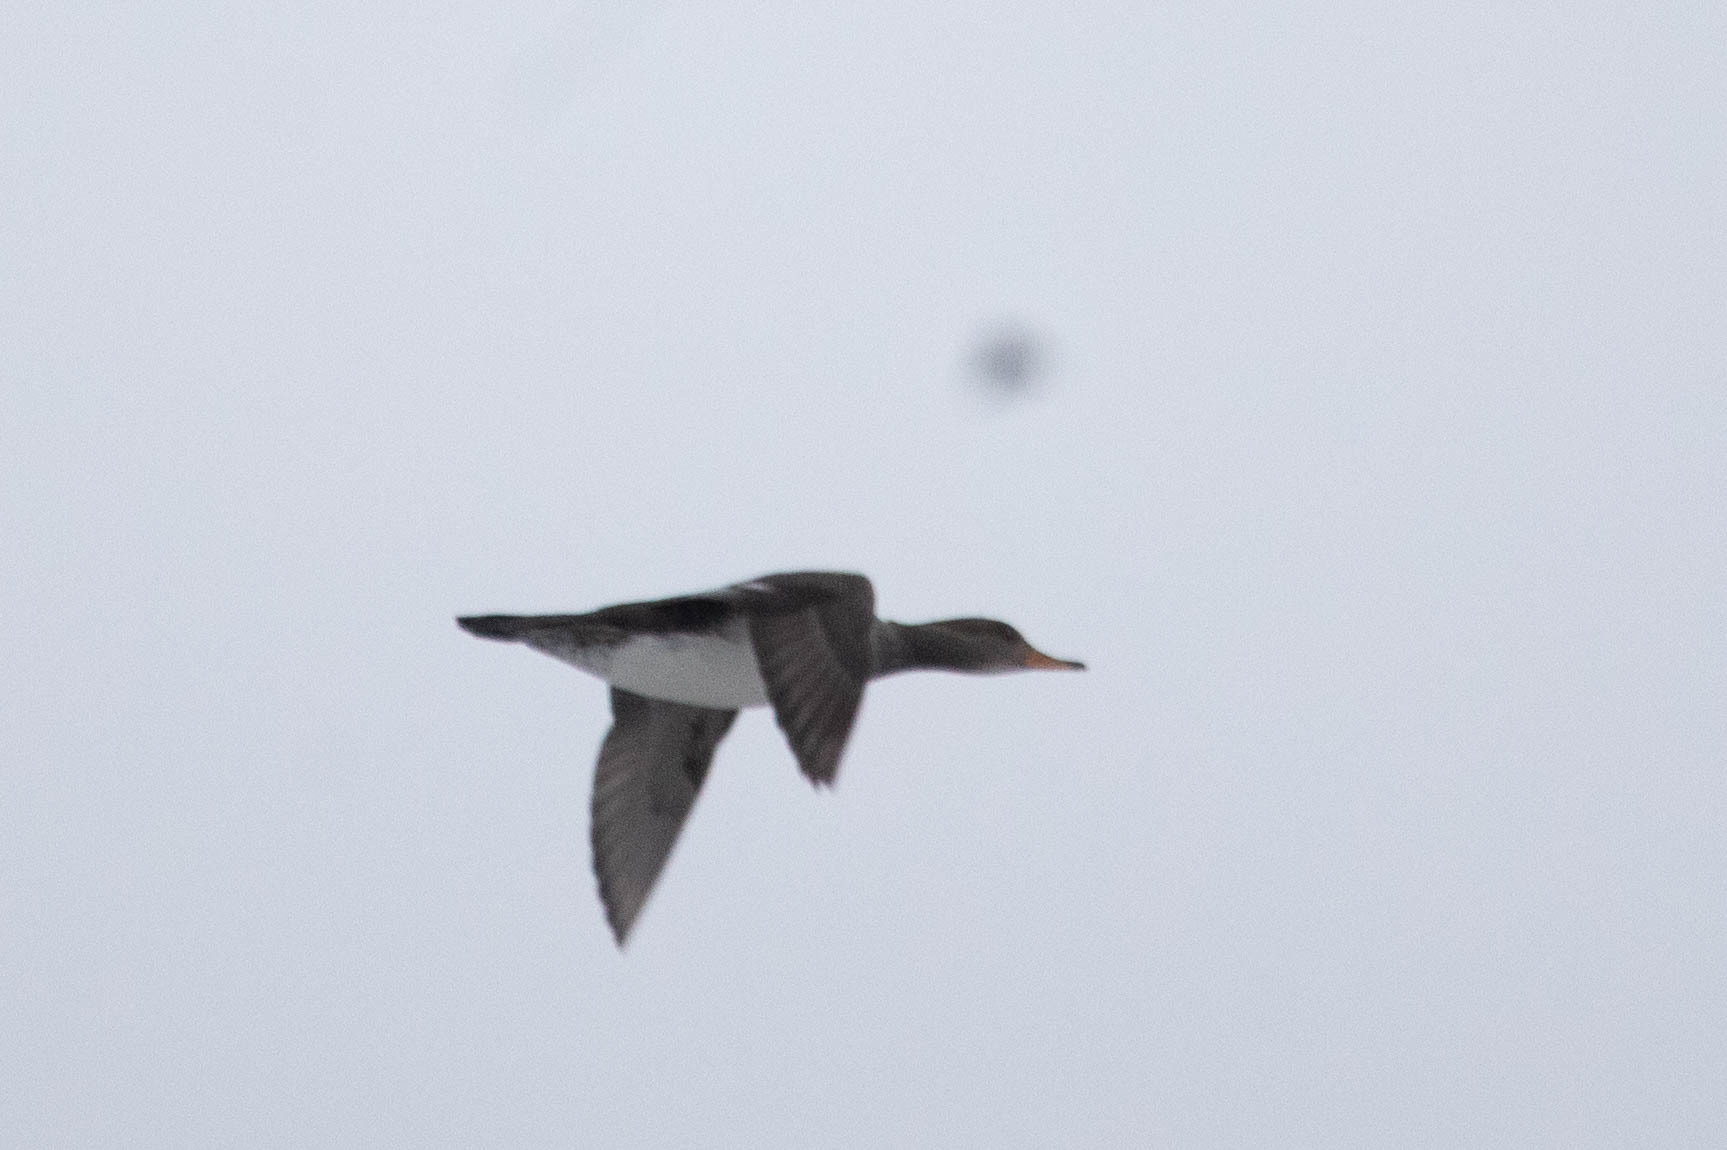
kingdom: Animalia
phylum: Chordata
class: Aves
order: Anseriformes
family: Anatidae
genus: Lophodytes
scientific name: Lophodytes cucullatus
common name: Hooded merganser
